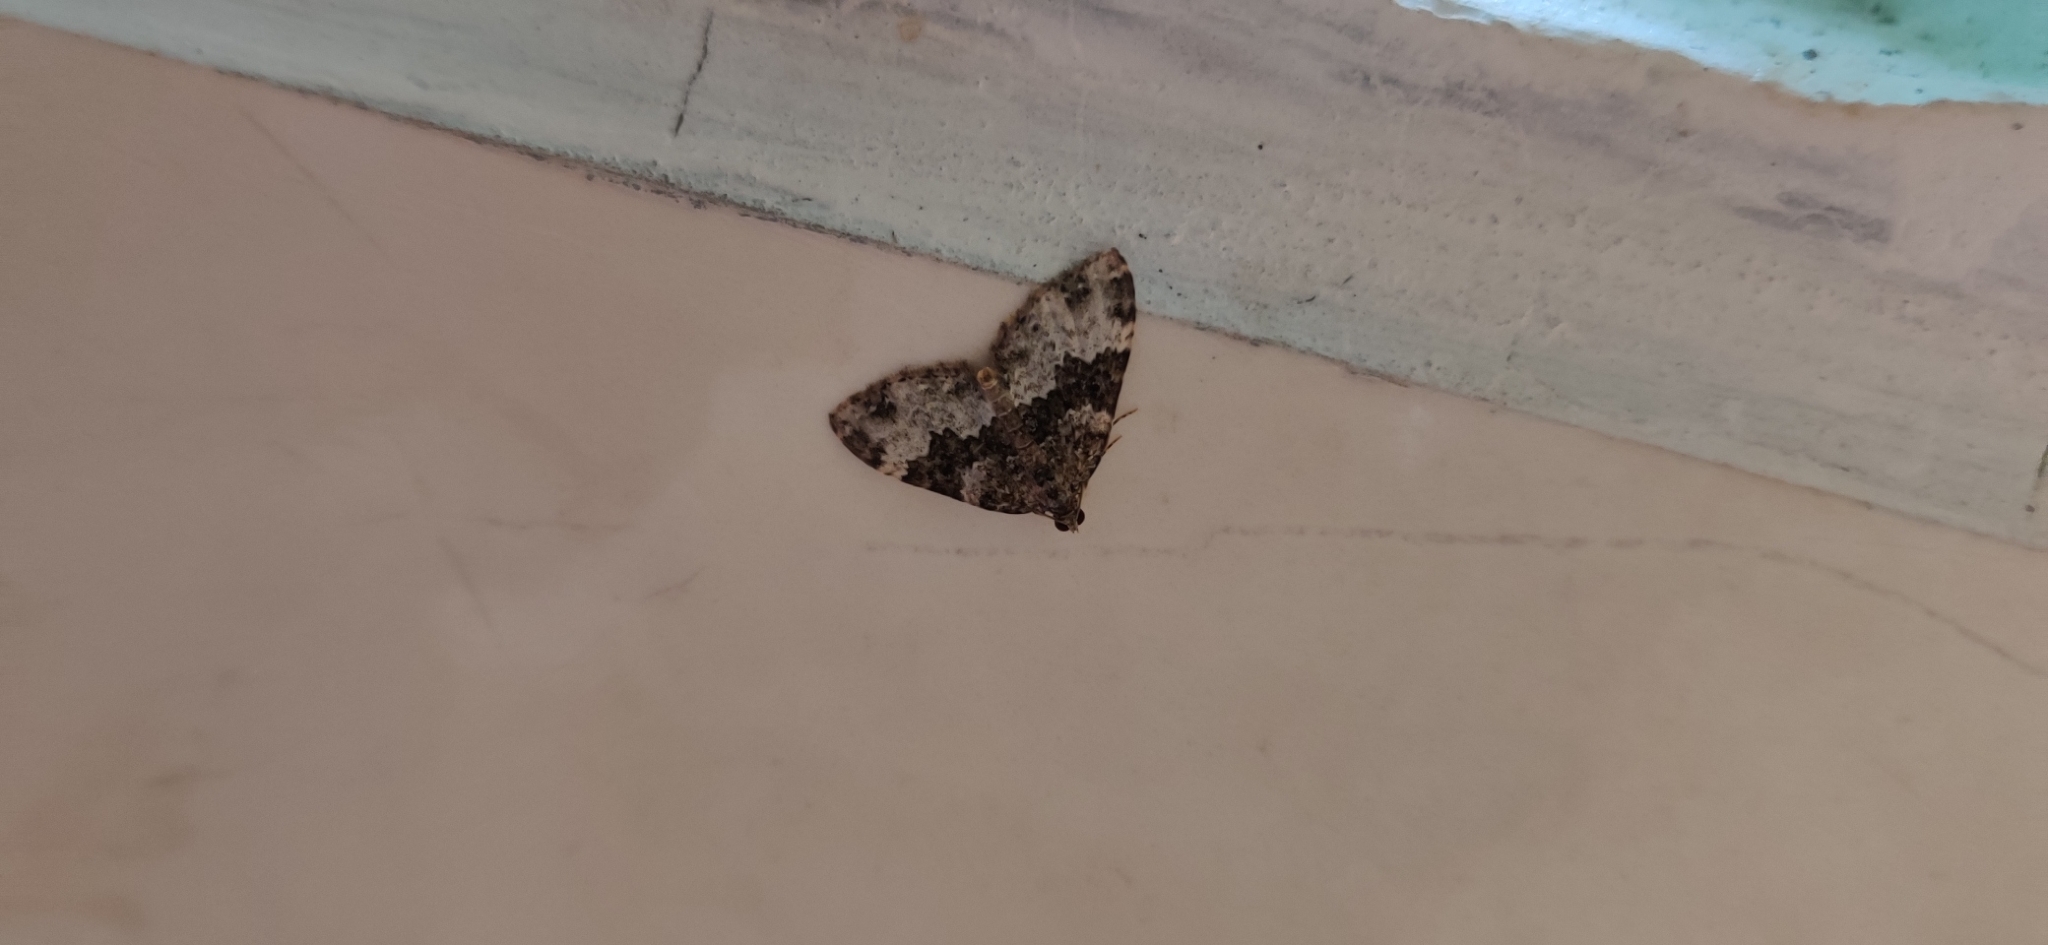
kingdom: Animalia
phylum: Arthropoda
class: Insecta
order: Lepidoptera
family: Geometridae
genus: Euphyia
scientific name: Euphyia ochreata
